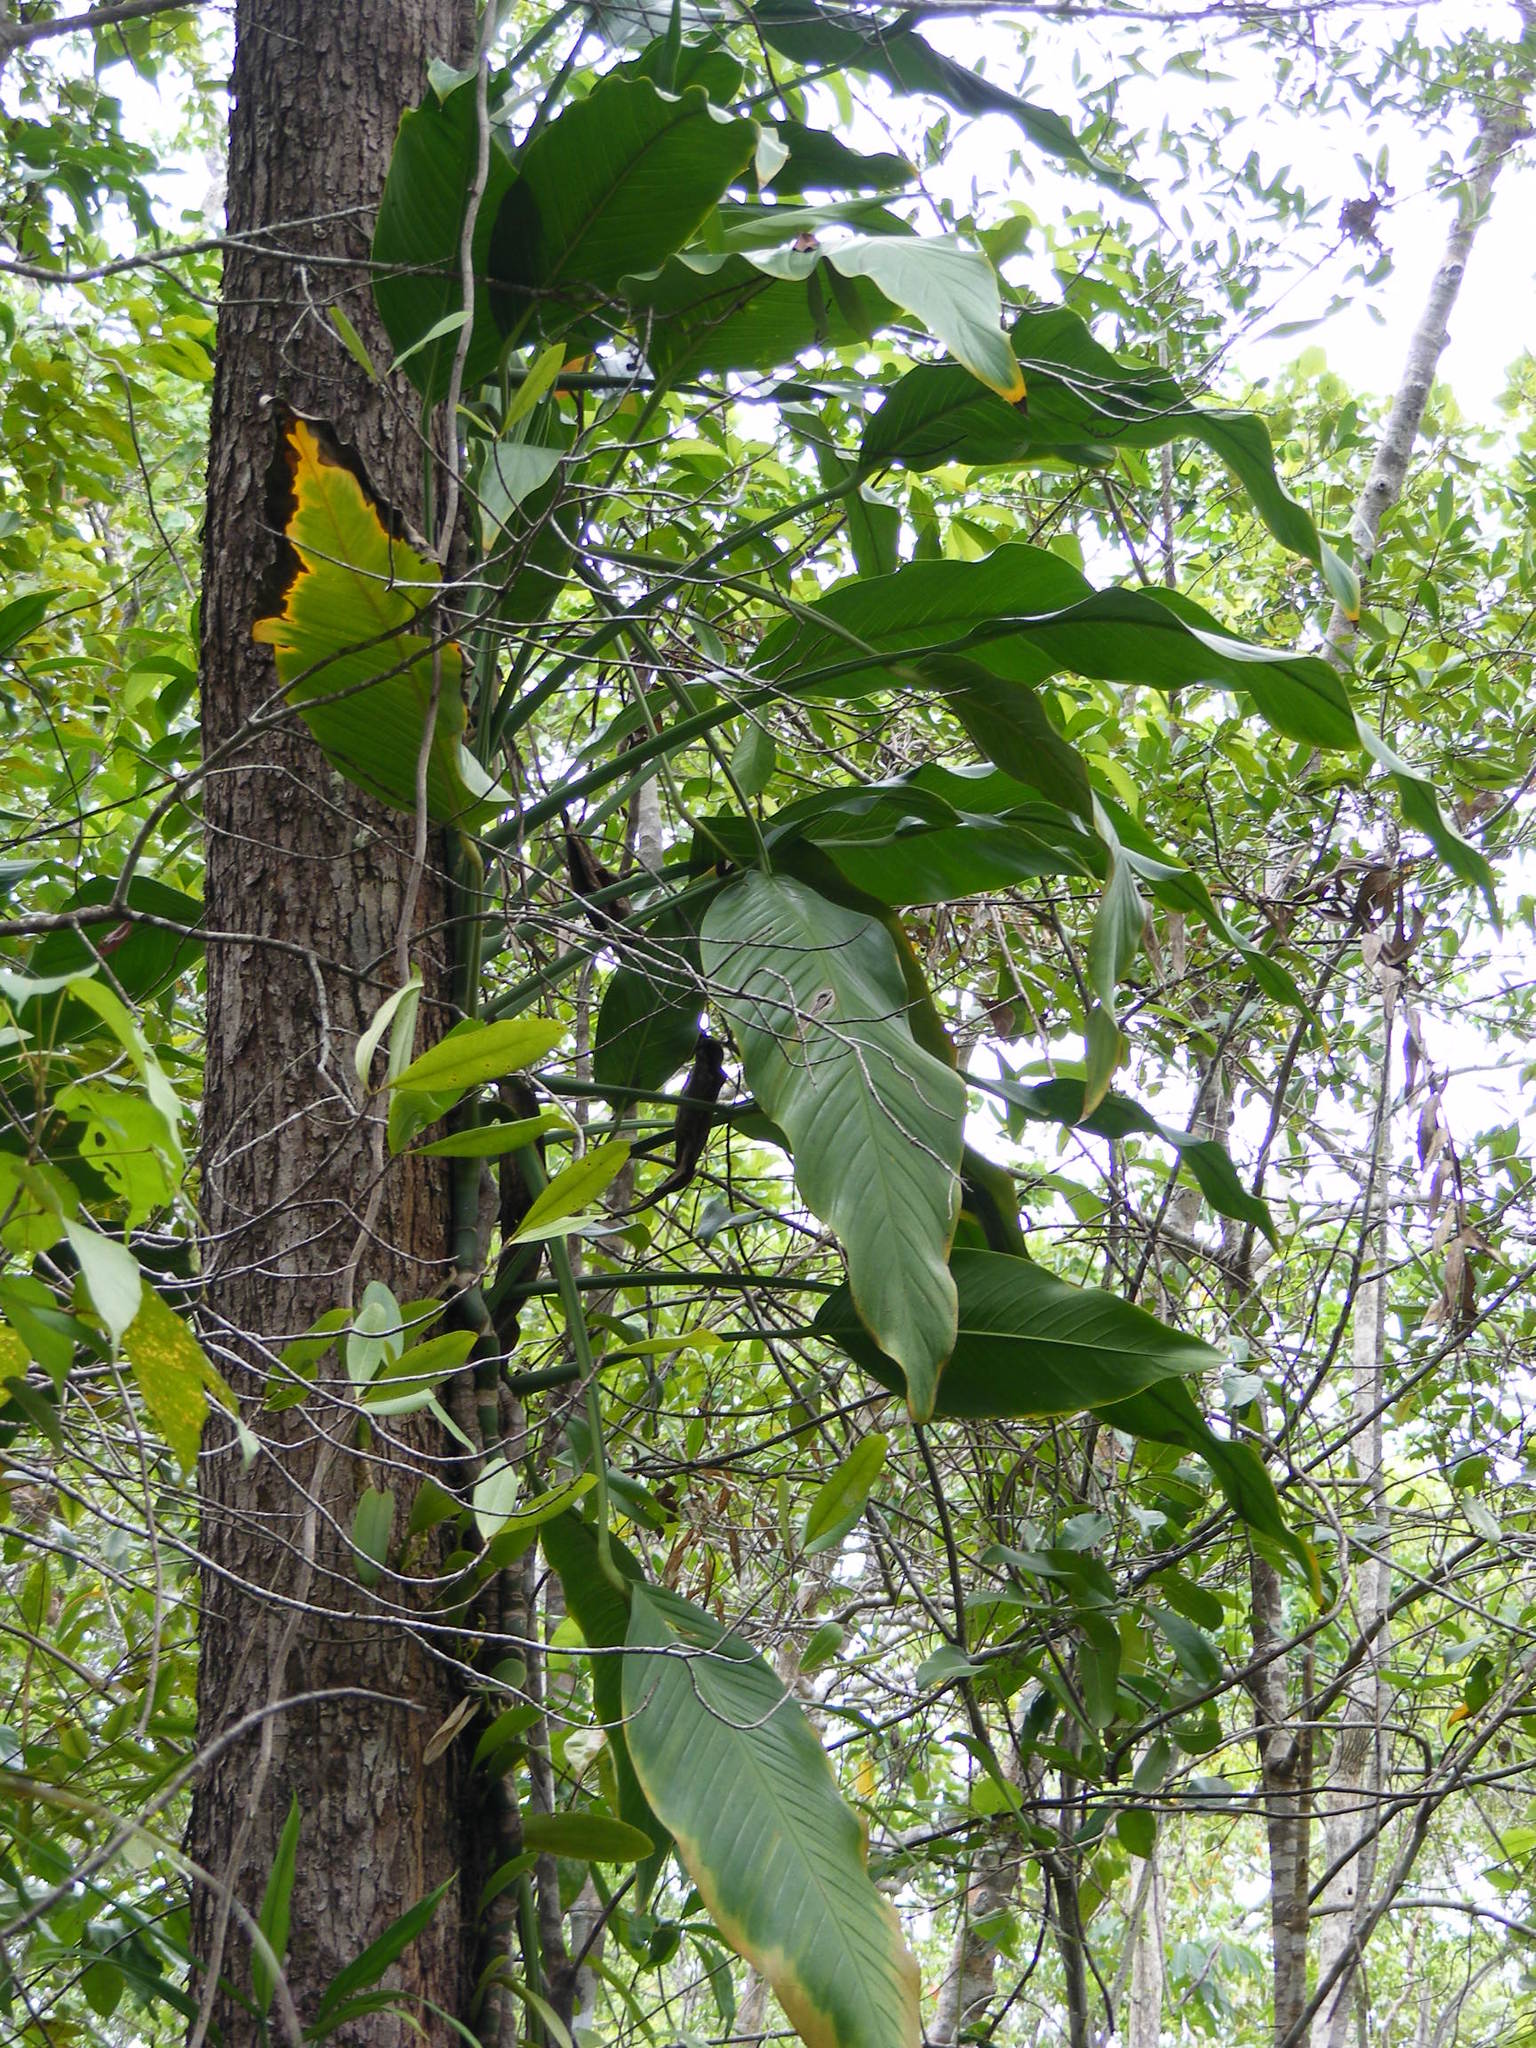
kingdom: Plantae
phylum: Tracheophyta
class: Liliopsida
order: Alismatales
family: Araceae
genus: Epipremnum
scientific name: Epipremnum amplissimum
